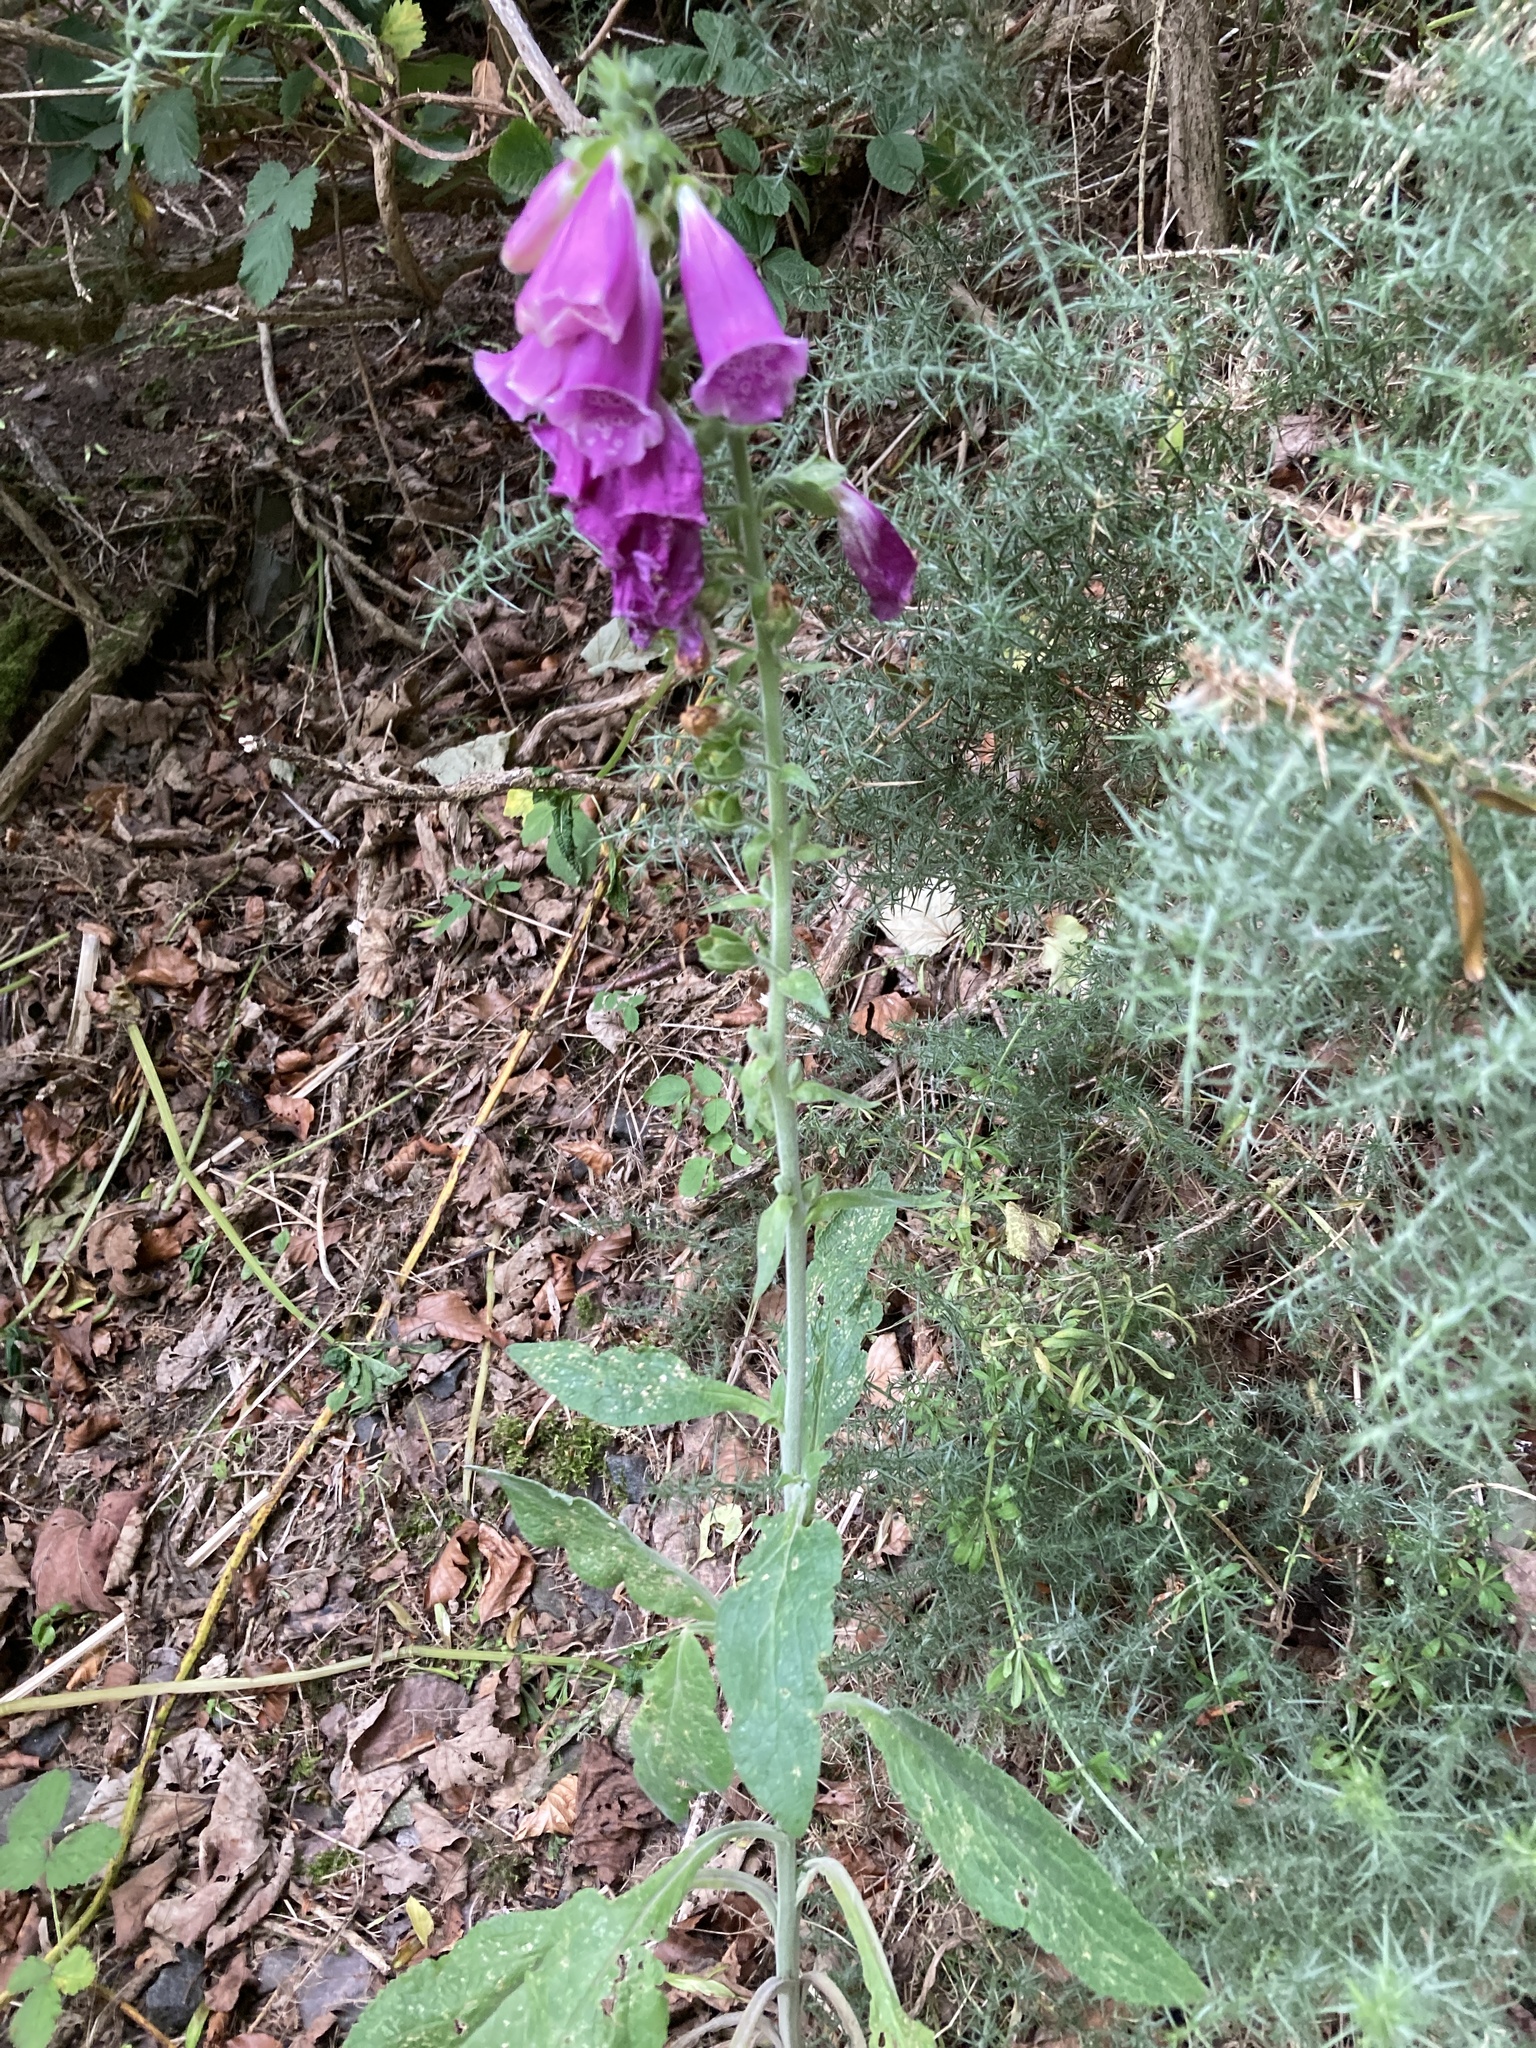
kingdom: Plantae
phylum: Tracheophyta
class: Magnoliopsida
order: Lamiales
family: Plantaginaceae
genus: Digitalis
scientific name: Digitalis purpurea
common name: Foxglove
